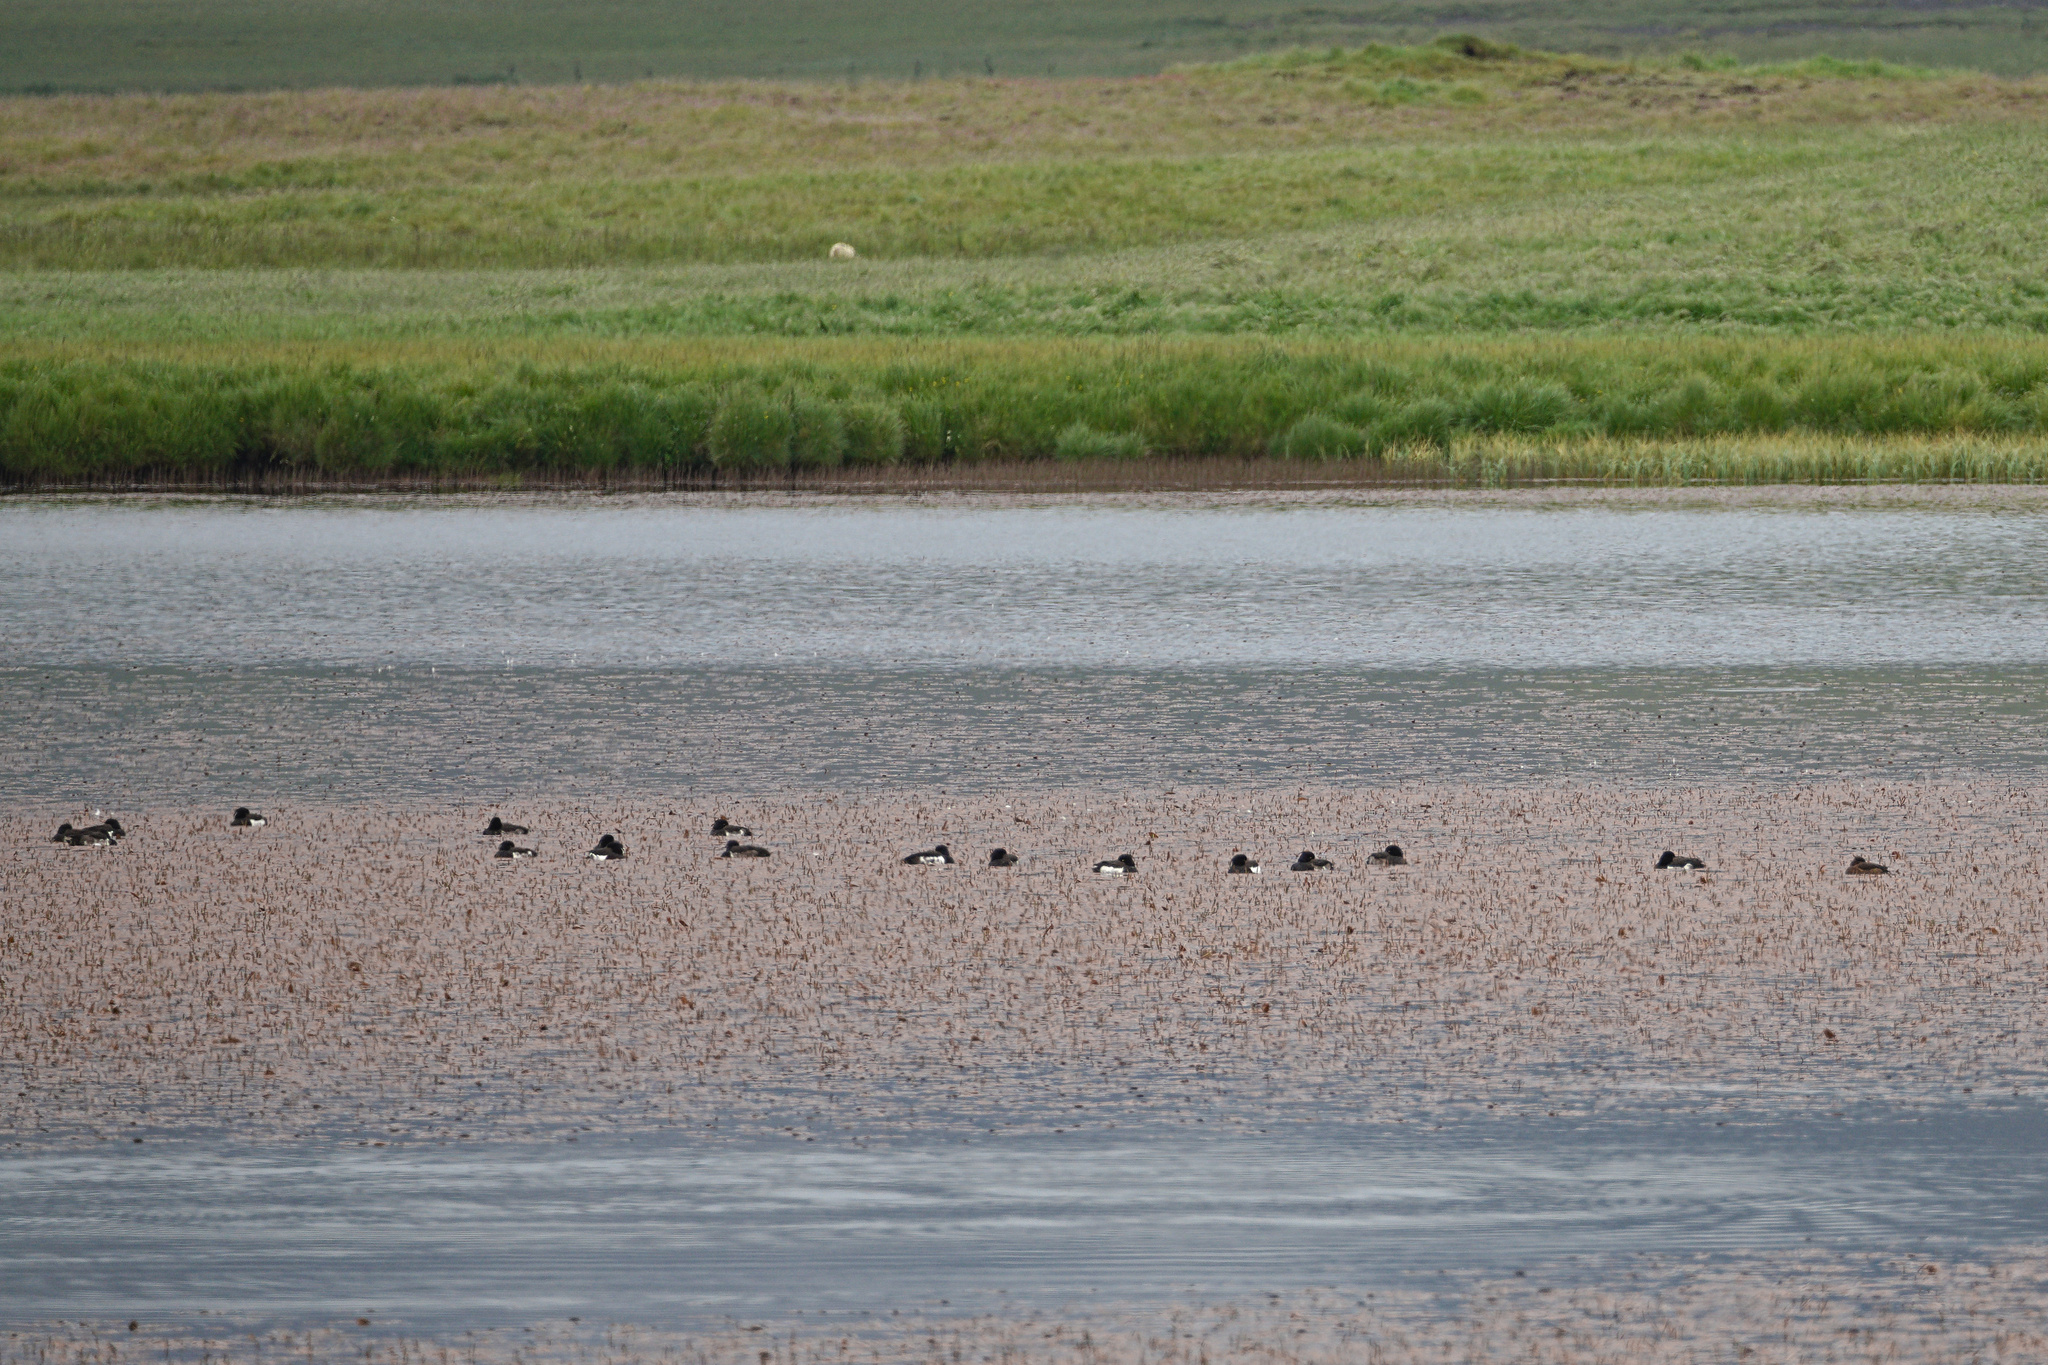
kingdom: Animalia
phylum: Chordata
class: Aves
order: Anseriformes
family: Anatidae
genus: Aythya
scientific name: Aythya fuligula
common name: Tufted duck
